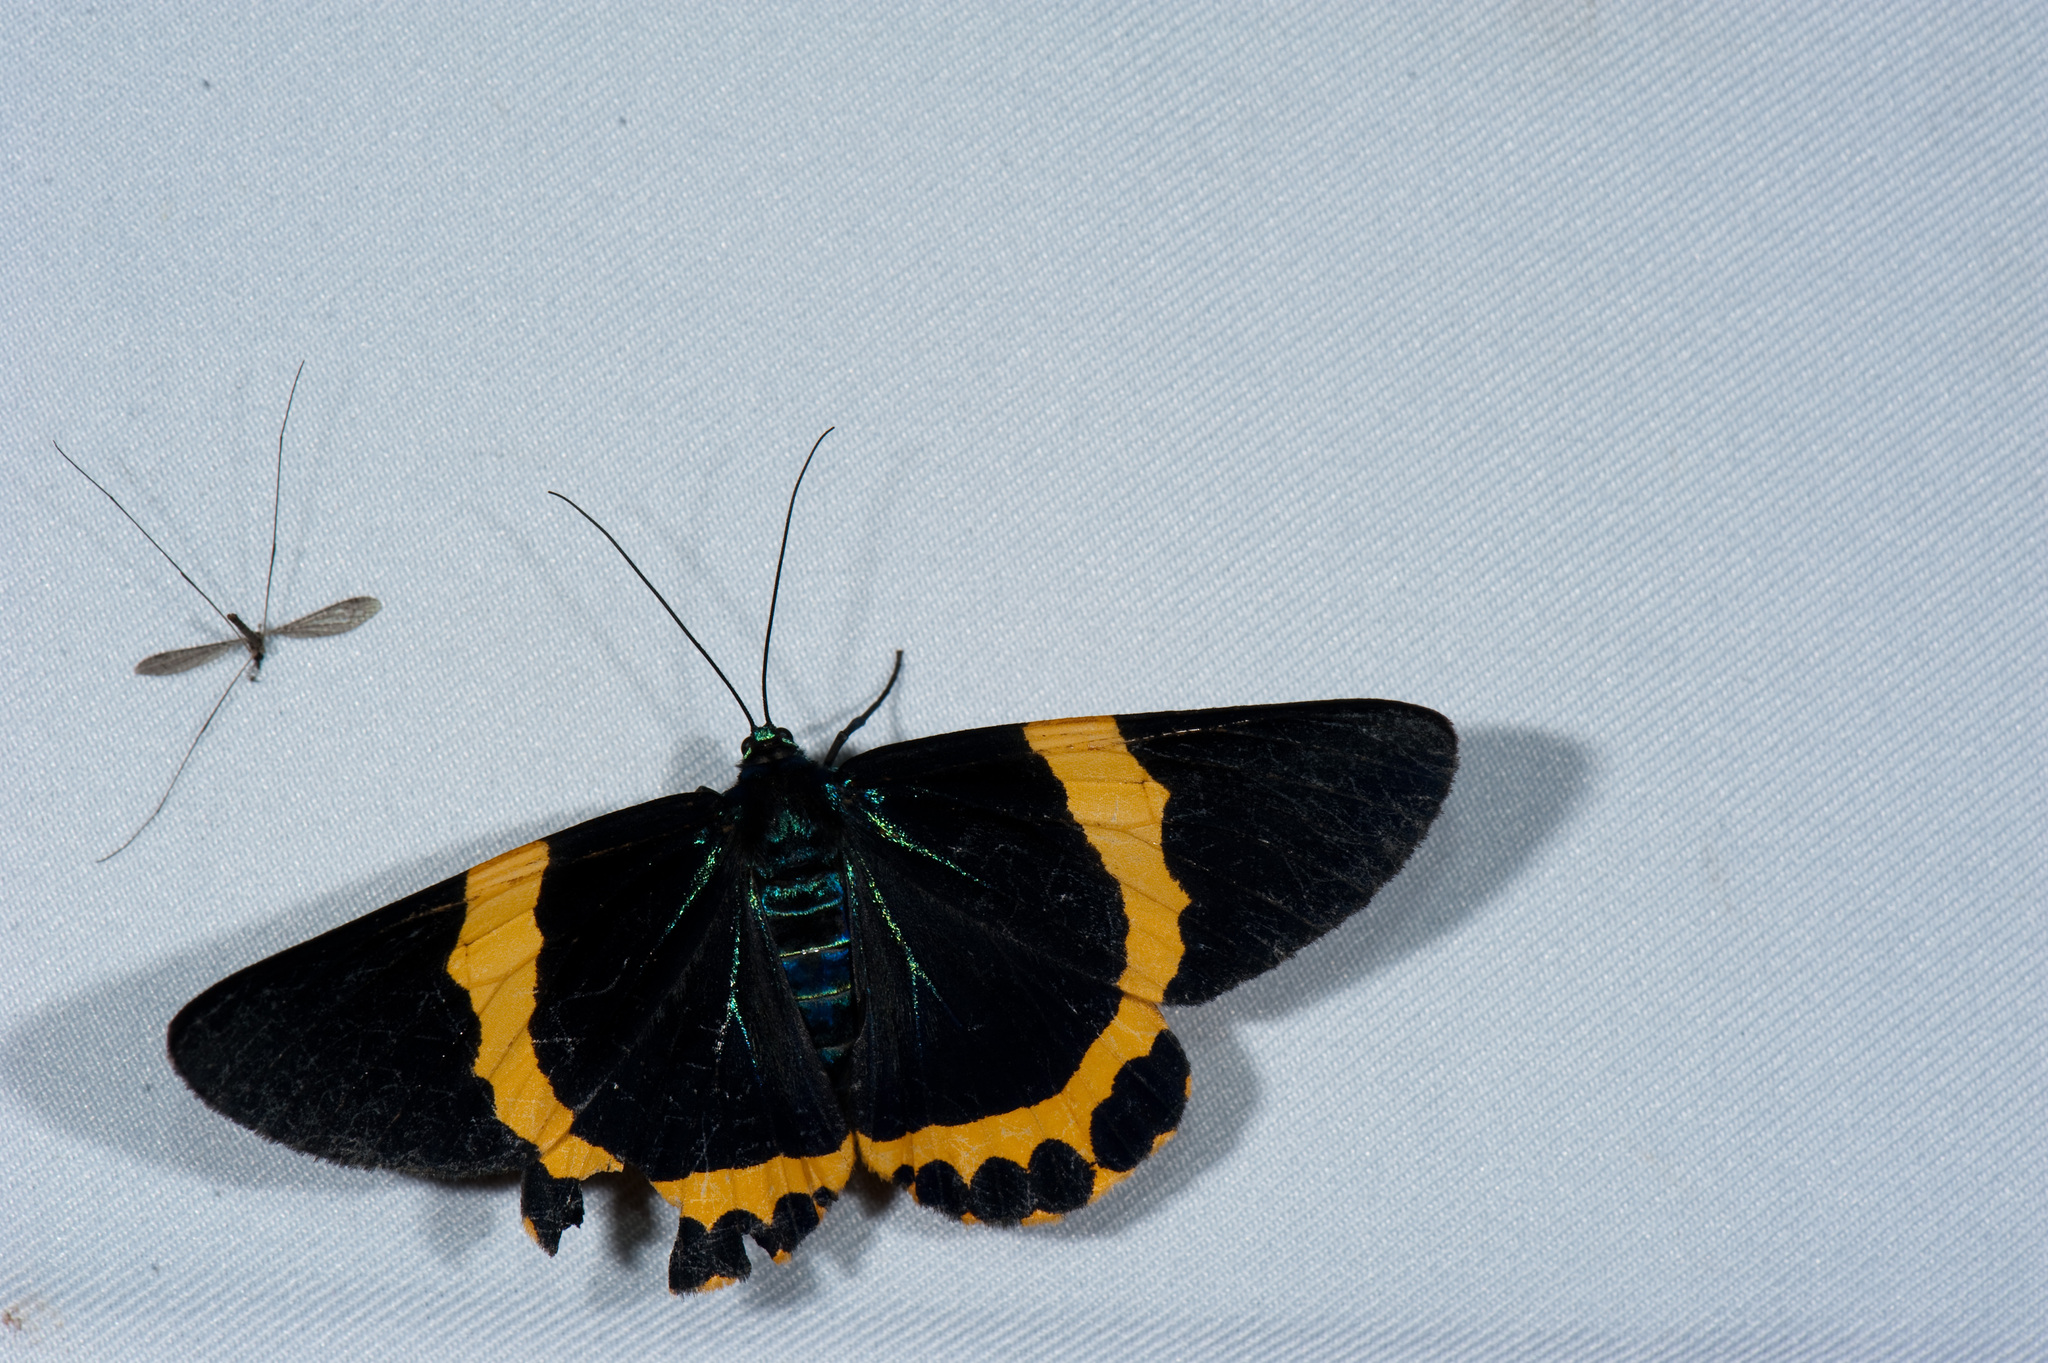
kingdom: Animalia
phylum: Arthropoda
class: Insecta
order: Lepidoptera
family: Geometridae
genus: Milionia
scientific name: Milionia basalis
